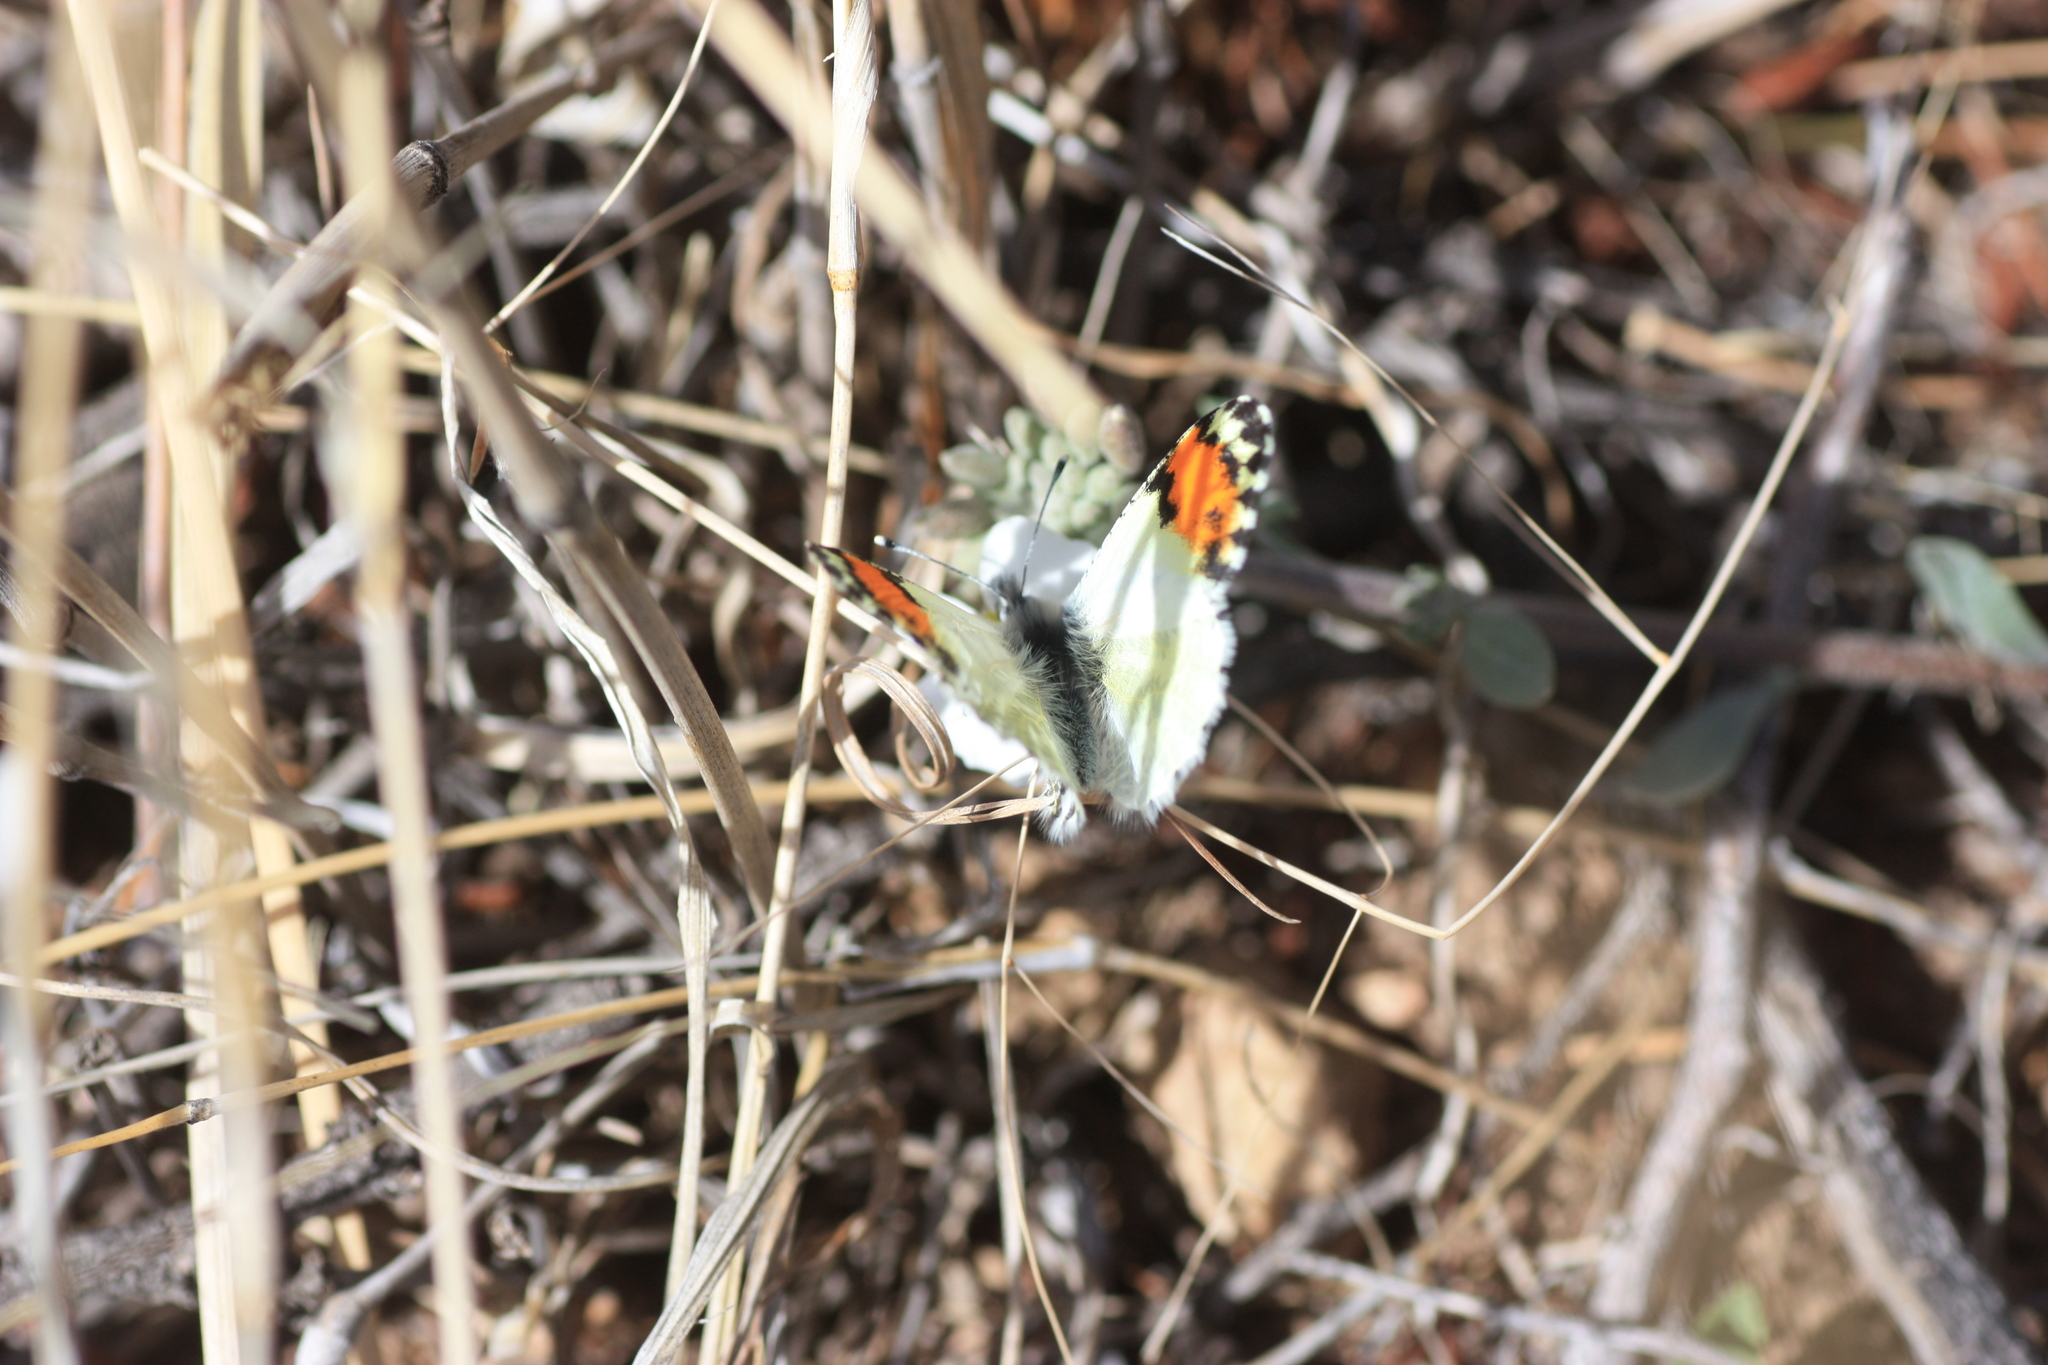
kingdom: Animalia
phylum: Arthropoda
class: Insecta
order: Lepidoptera
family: Pieridae
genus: Anthocharis
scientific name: Anthocharis thoosa
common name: Southwestern orangetip
